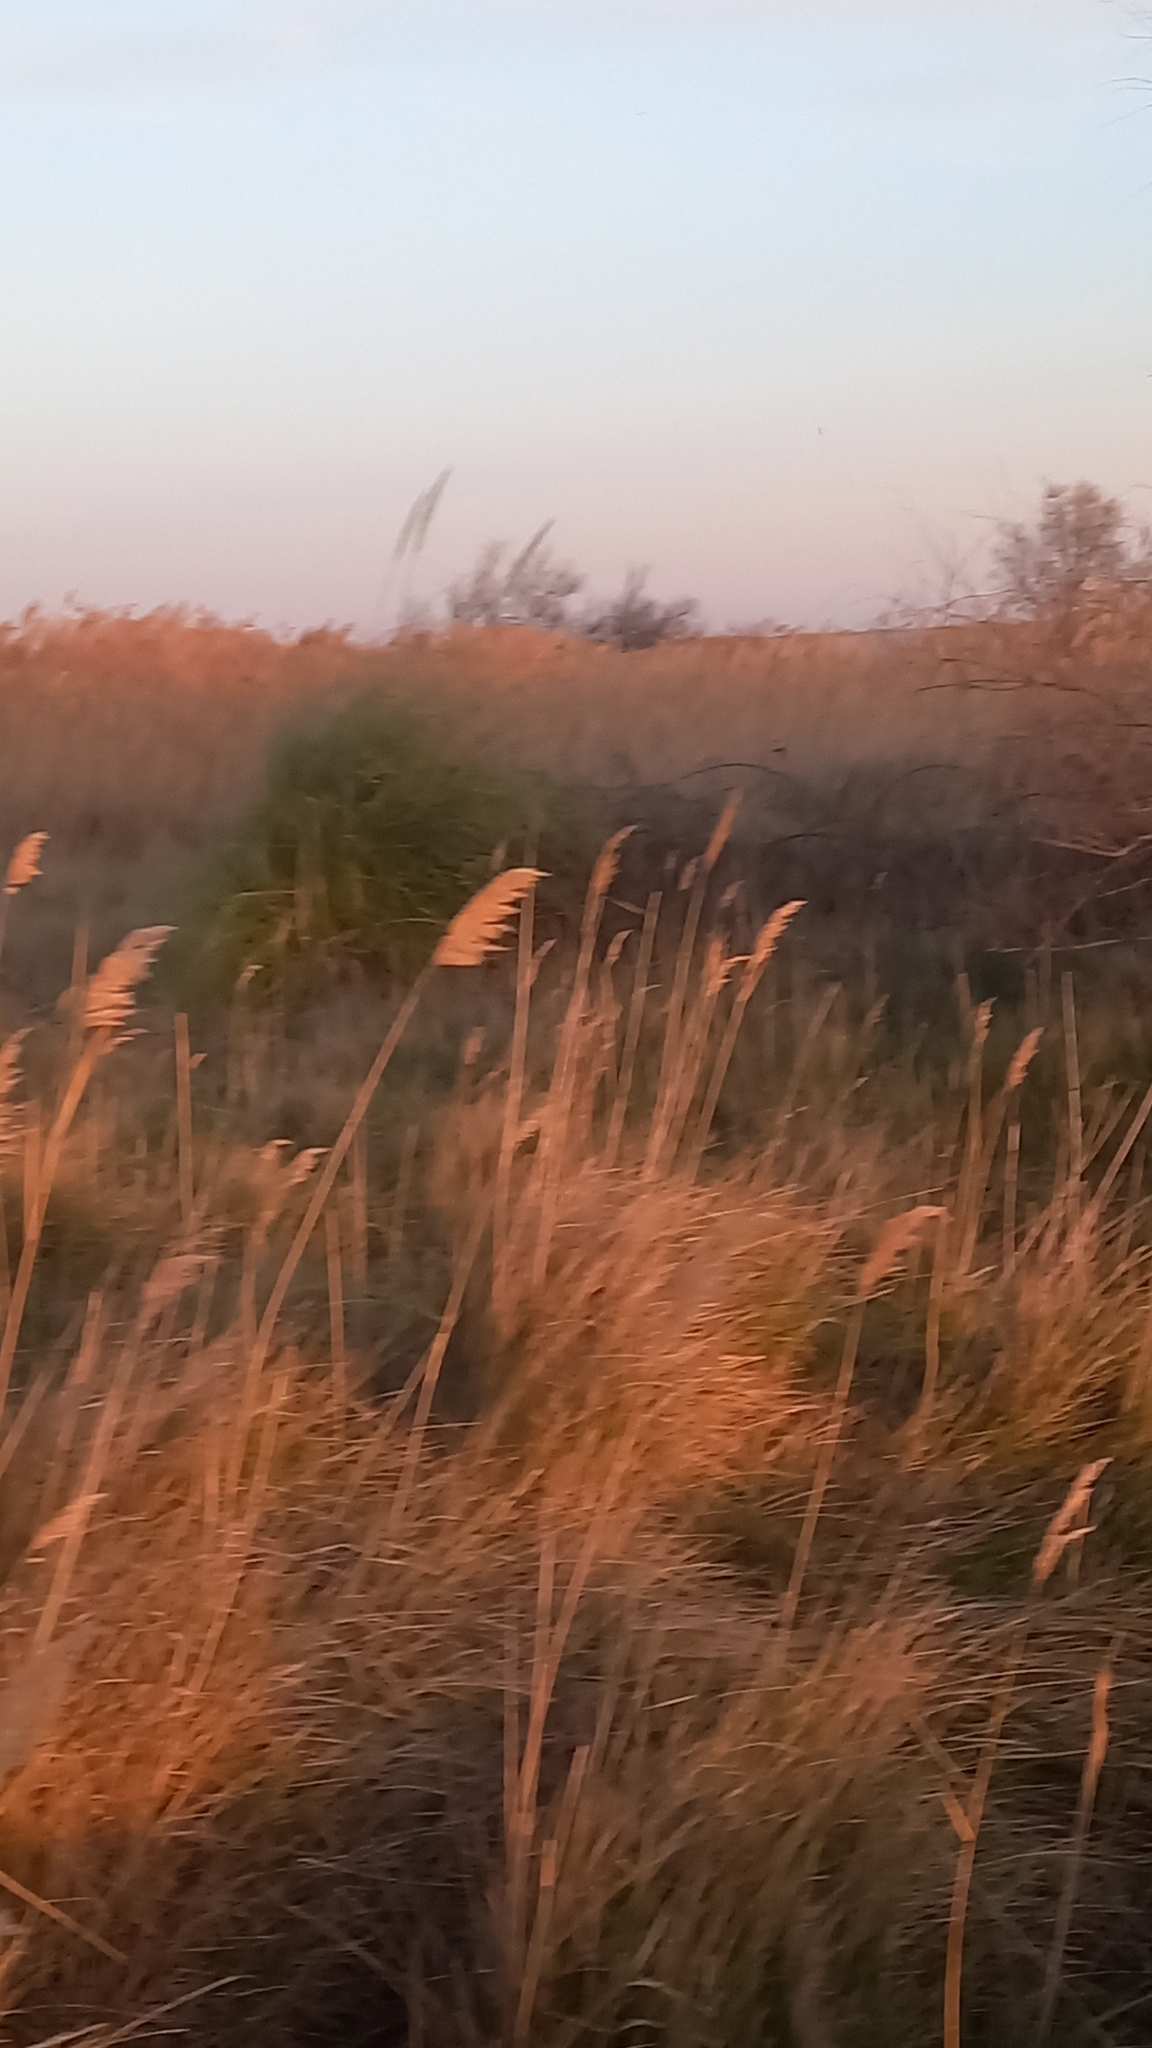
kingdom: Plantae
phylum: Tracheophyta
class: Liliopsida
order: Poales
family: Poaceae
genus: Phragmites
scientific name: Phragmites australis
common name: Common reed
